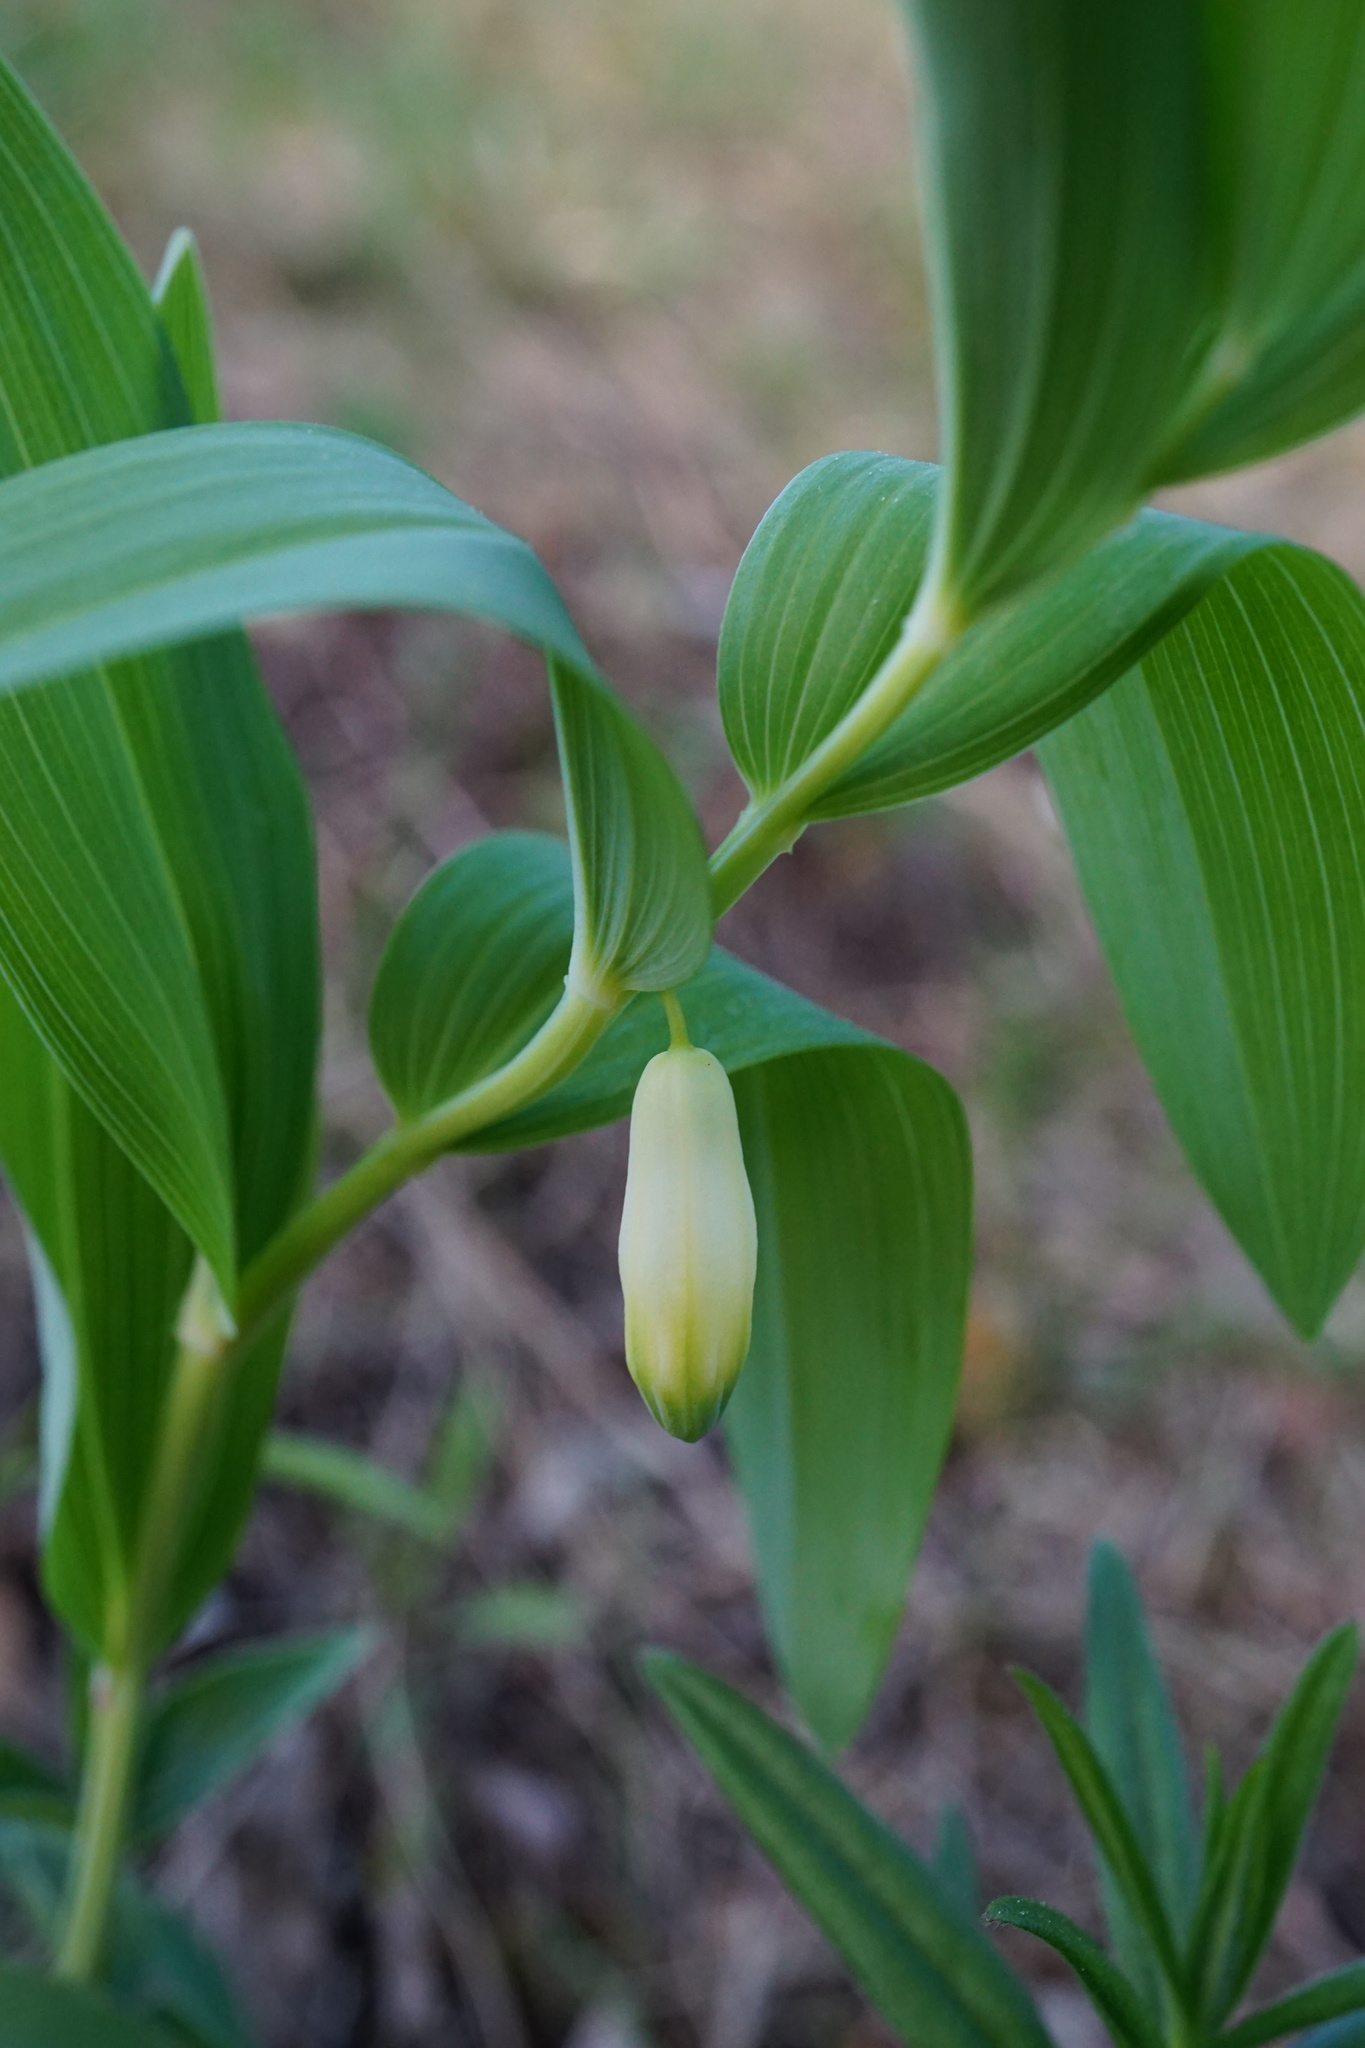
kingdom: Plantae
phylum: Tracheophyta
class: Liliopsida
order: Asparagales
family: Asparagaceae
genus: Polygonatum
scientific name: Polygonatum odoratum
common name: Angular solomon's-seal
